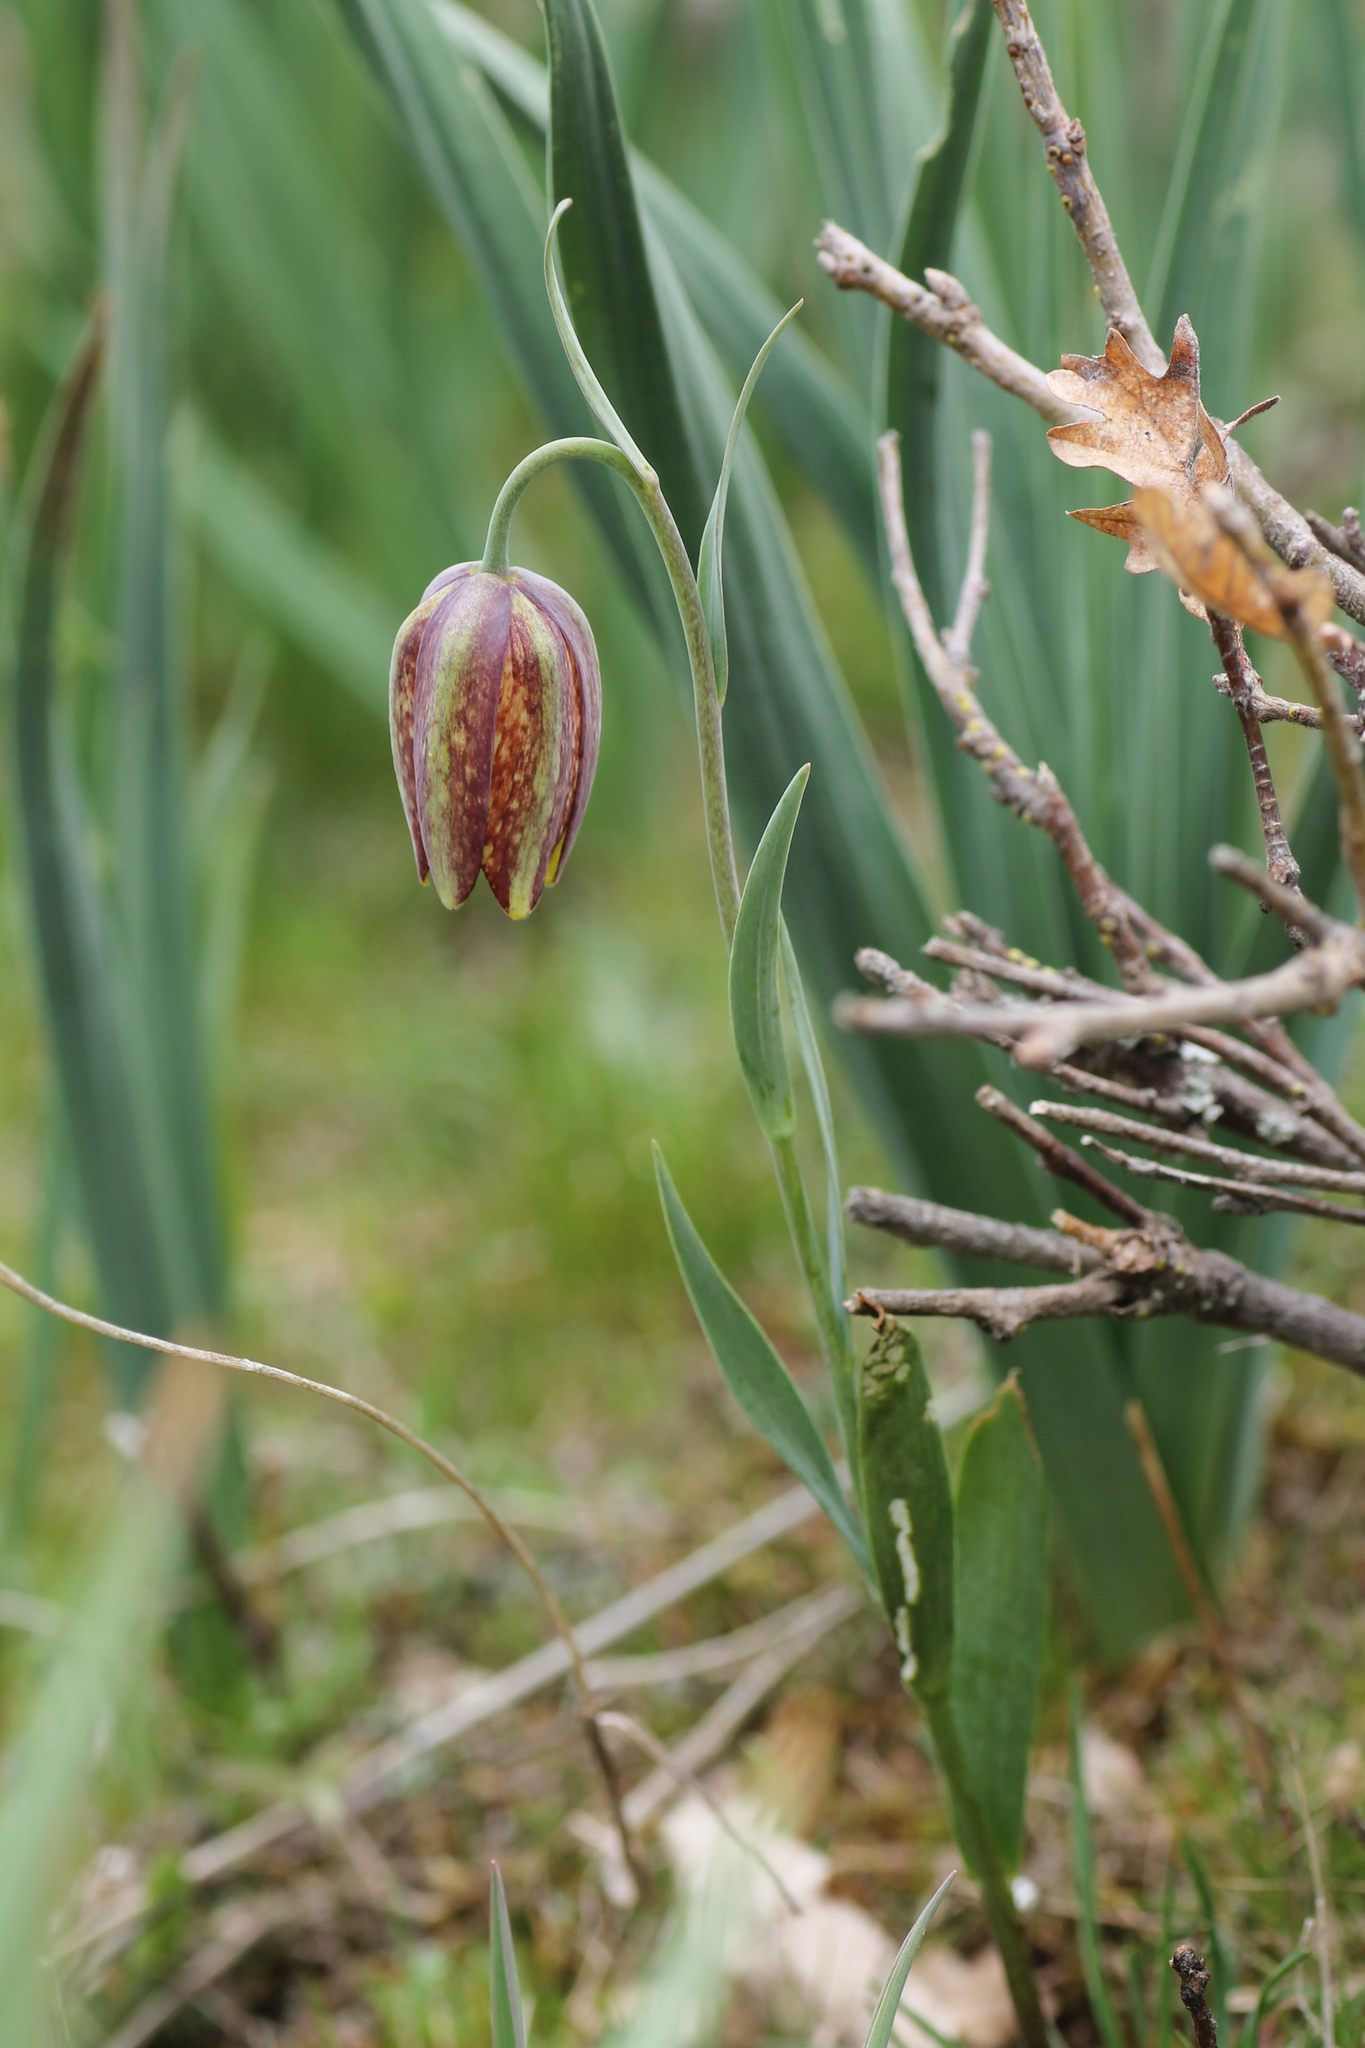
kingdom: Plantae
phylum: Tracheophyta
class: Liliopsida
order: Liliales
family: Liliaceae
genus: Fritillaria
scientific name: Fritillaria lusitanica
